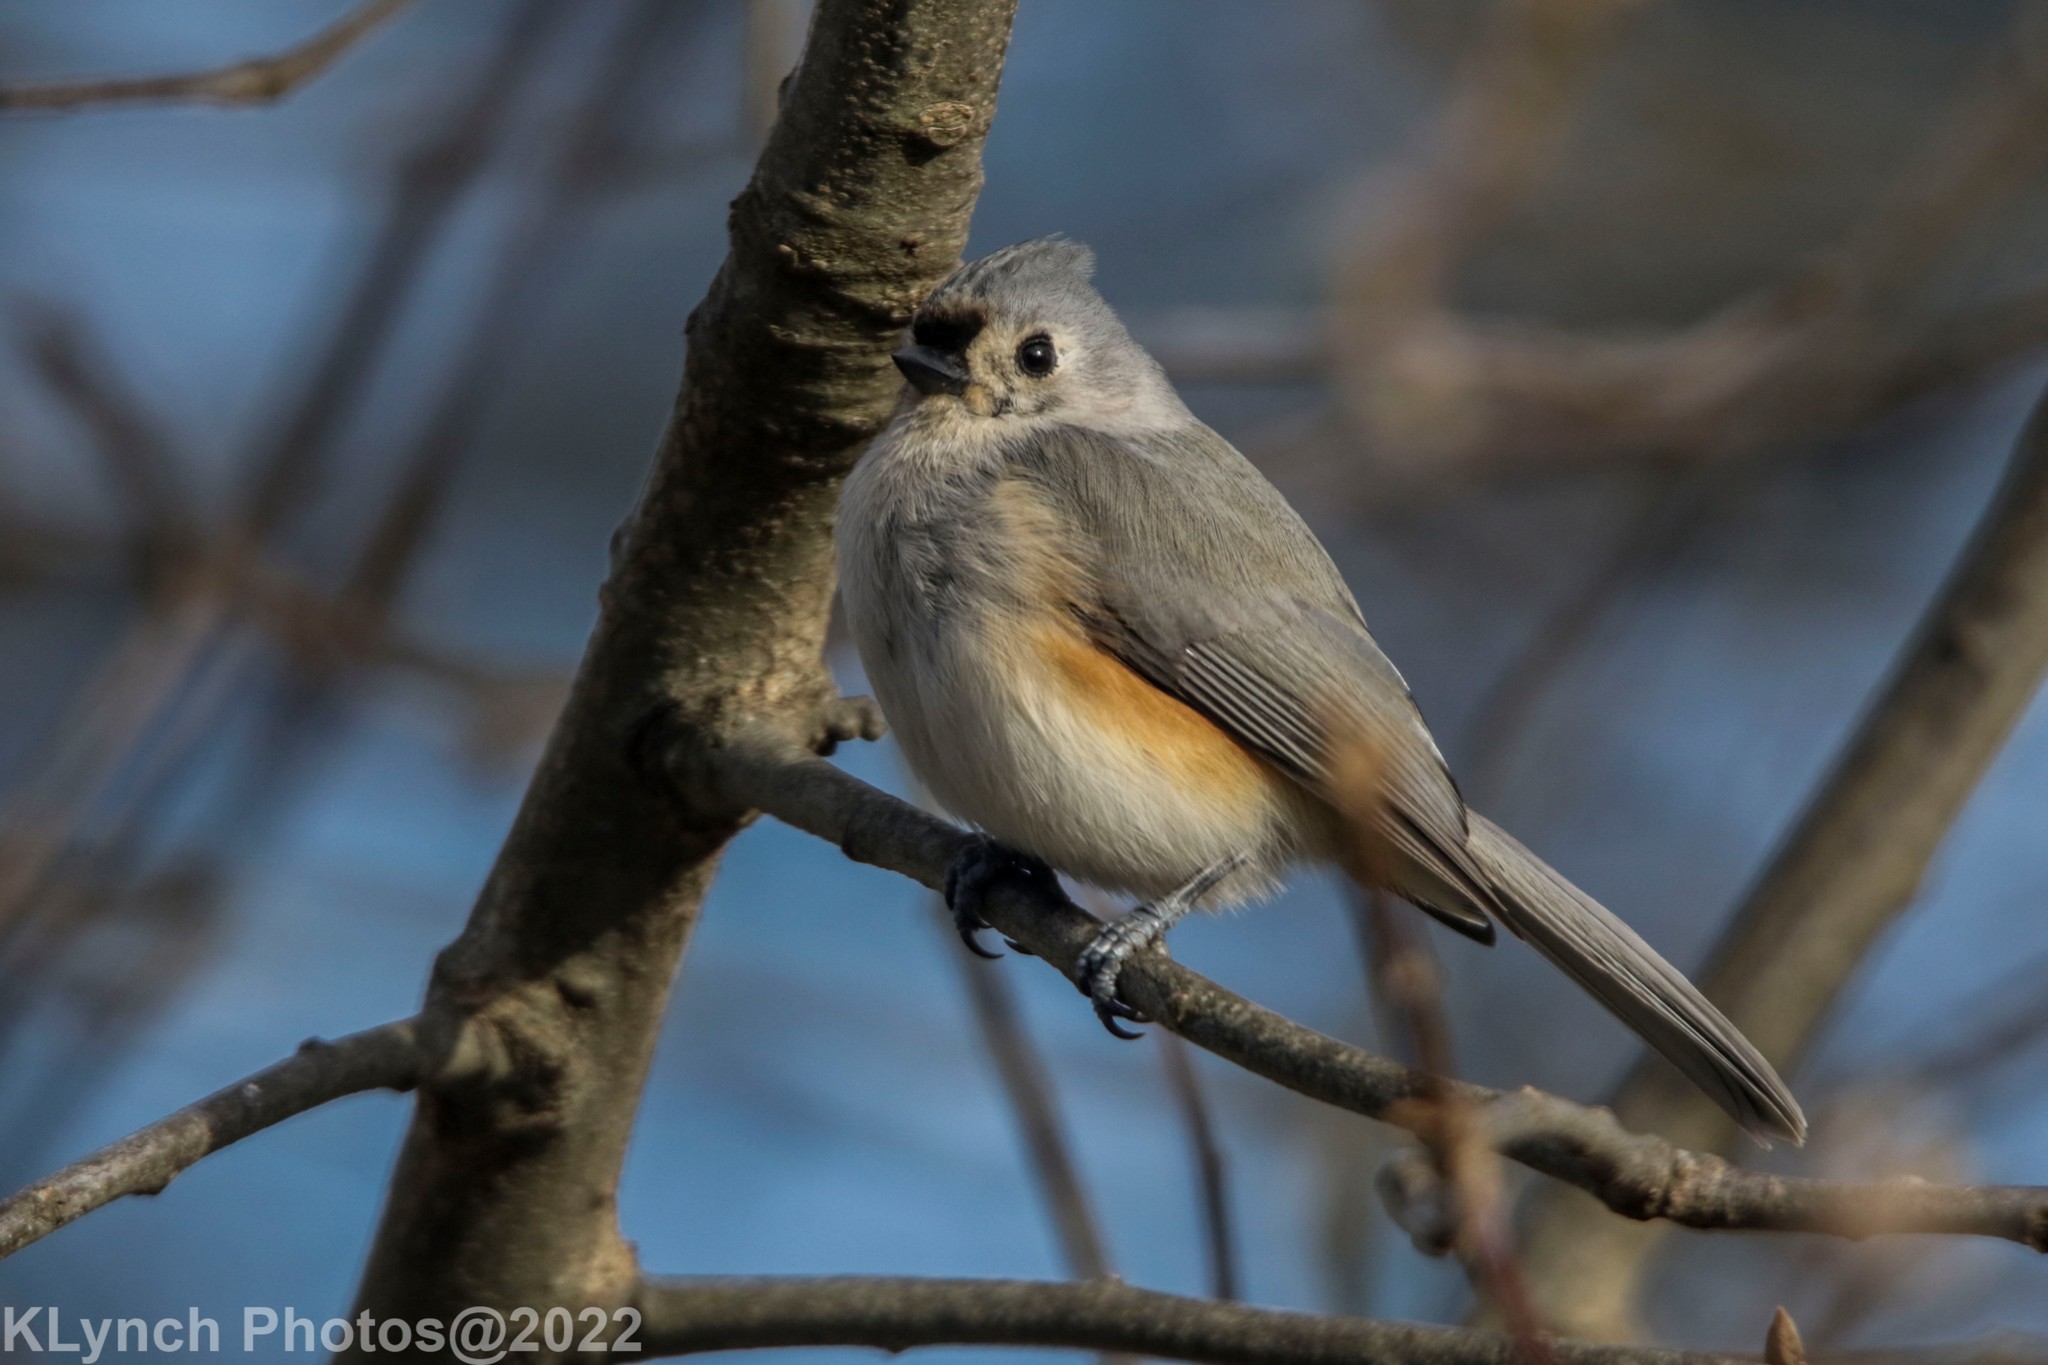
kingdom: Animalia
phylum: Chordata
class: Aves
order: Passeriformes
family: Paridae
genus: Baeolophus
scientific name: Baeolophus bicolor
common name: Tufted titmouse
